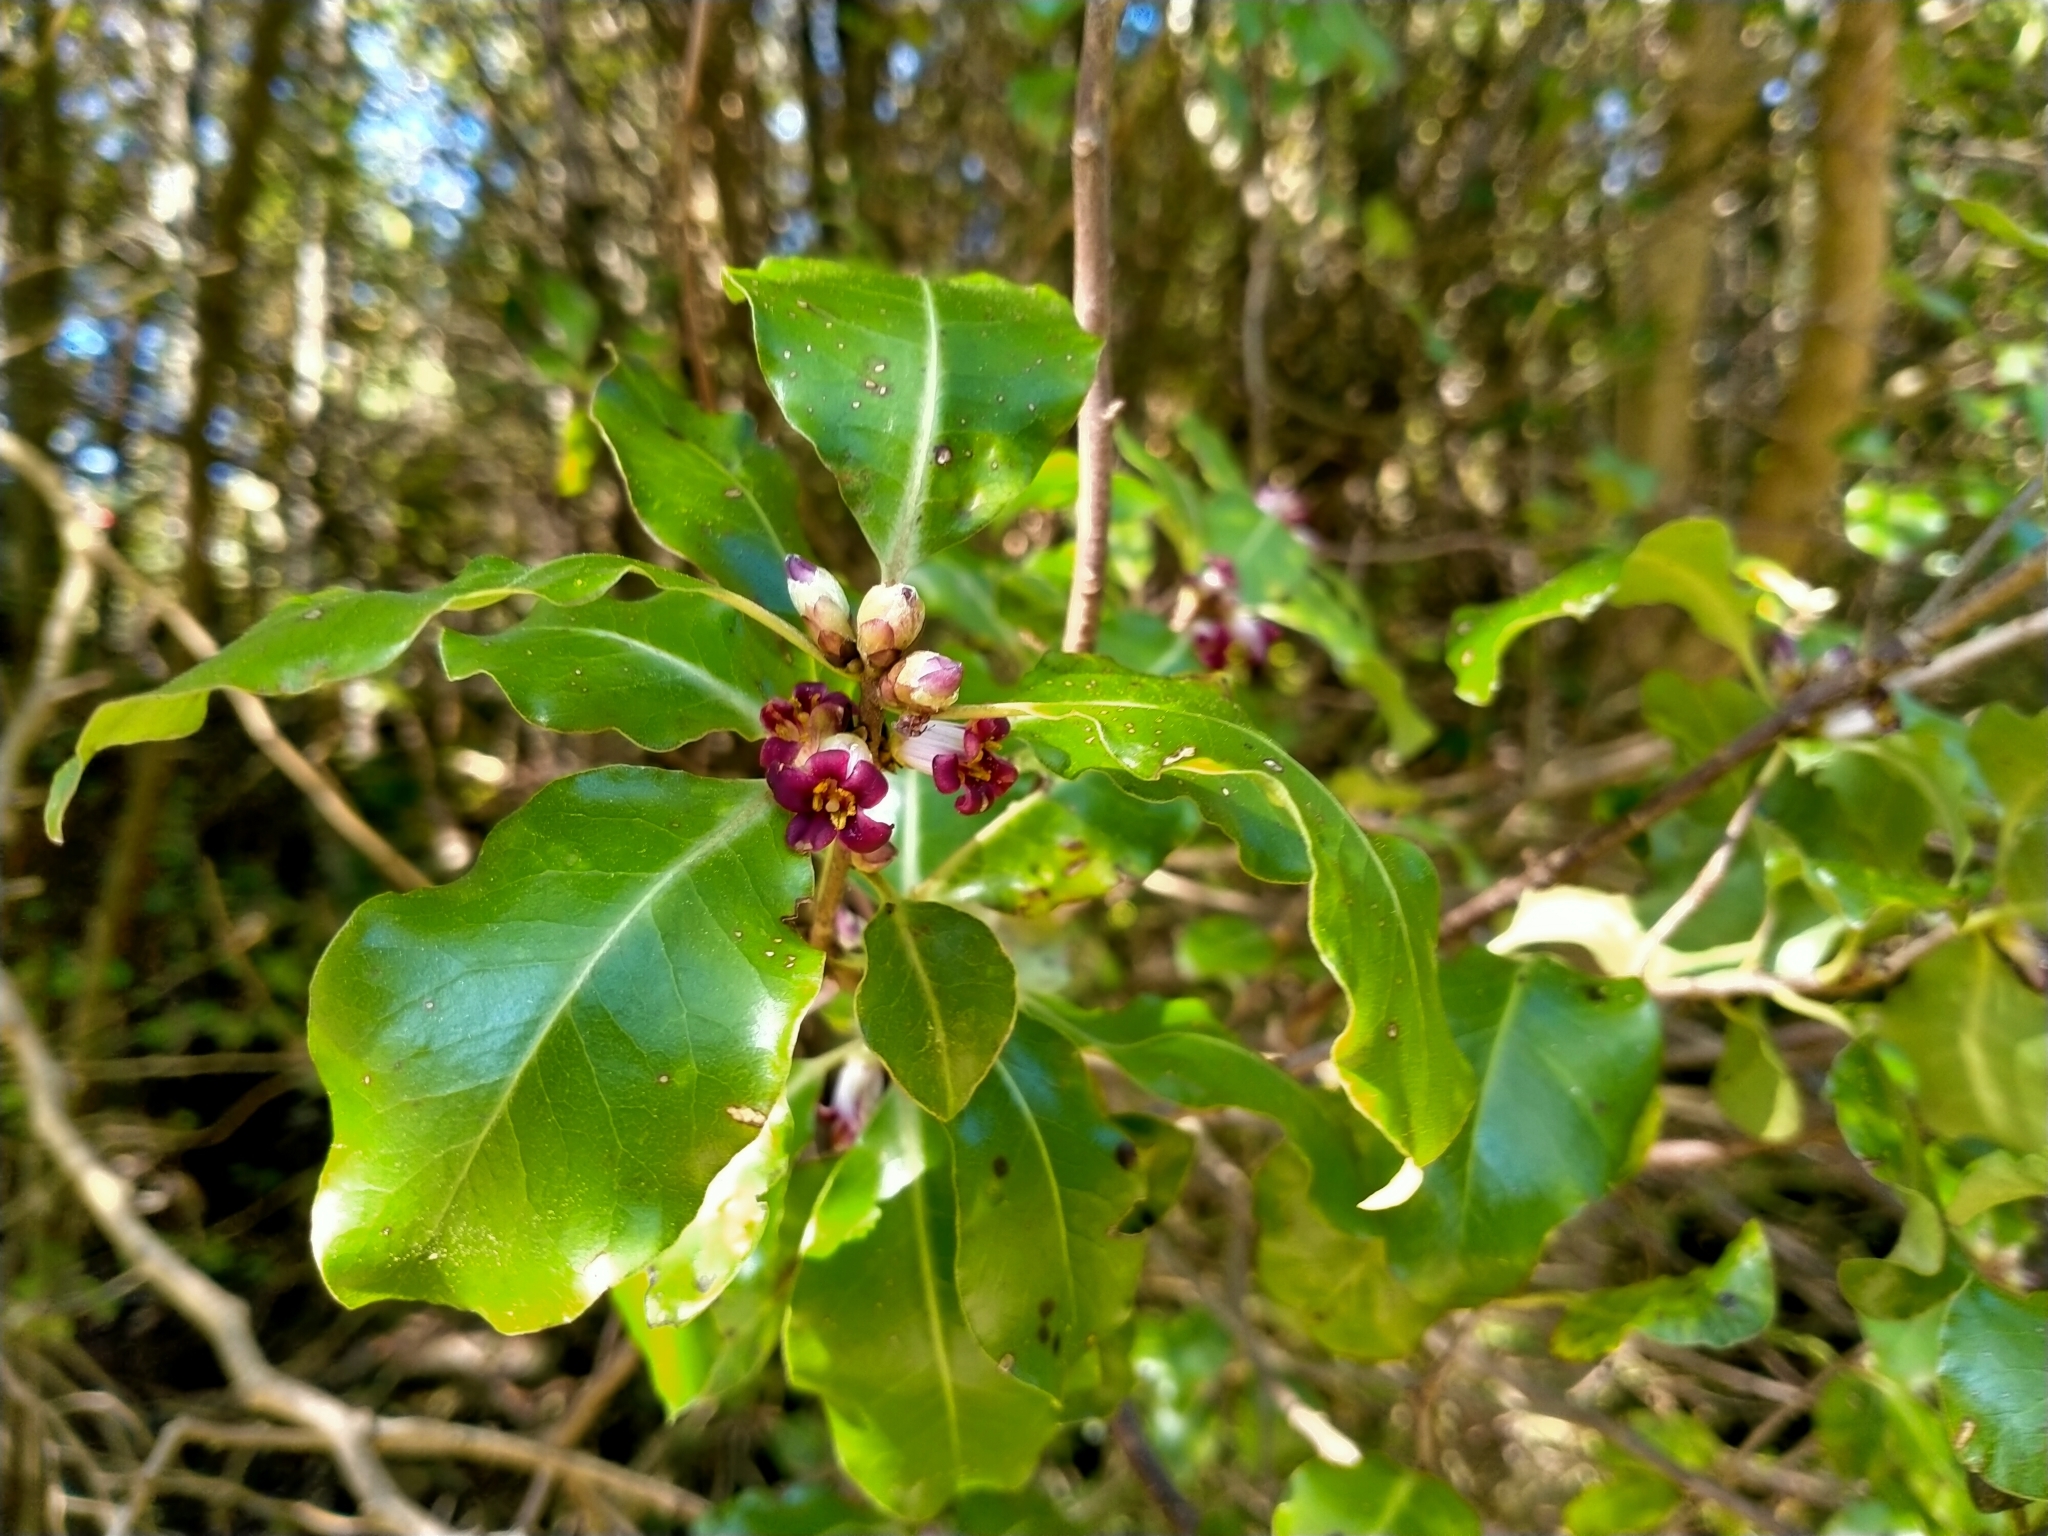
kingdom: Plantae
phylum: Tracheophyta
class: Magnoliopsida
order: Apiales
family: Pittosporaceae
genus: Pittosporum
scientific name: Pittosporum tenuifolium
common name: Kohuhu
